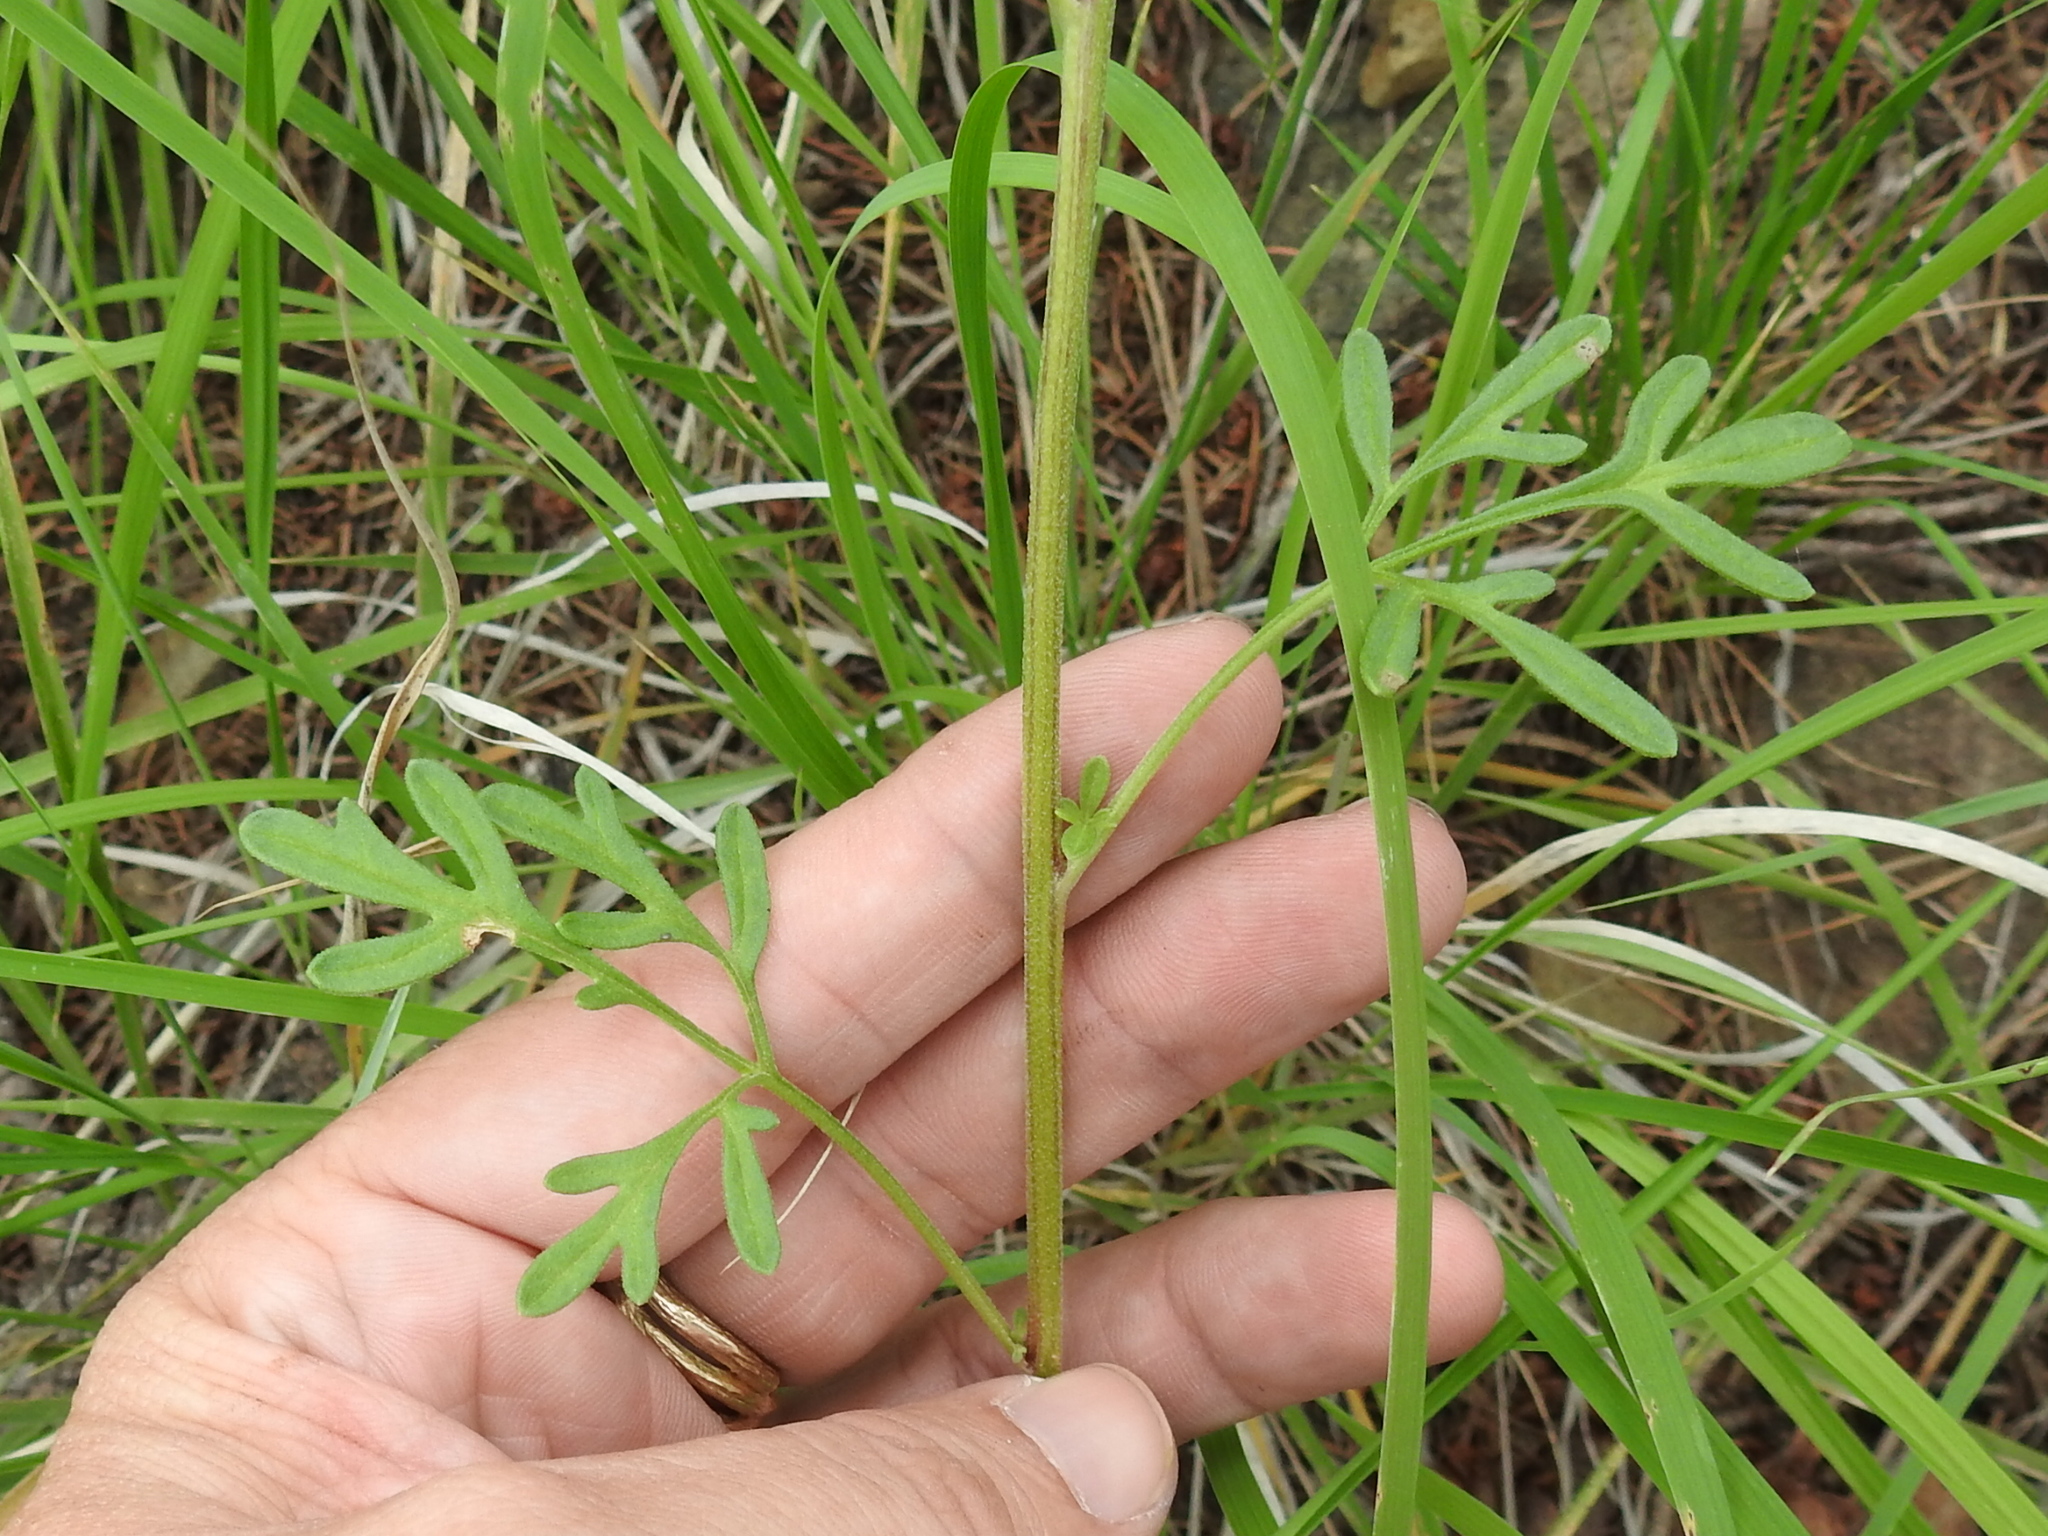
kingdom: Plantae
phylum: Tracheophyta
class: Magnoliopsida
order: Asterales
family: Asteraceae
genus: Hymenothrix
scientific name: Hymenothrix dissecta
